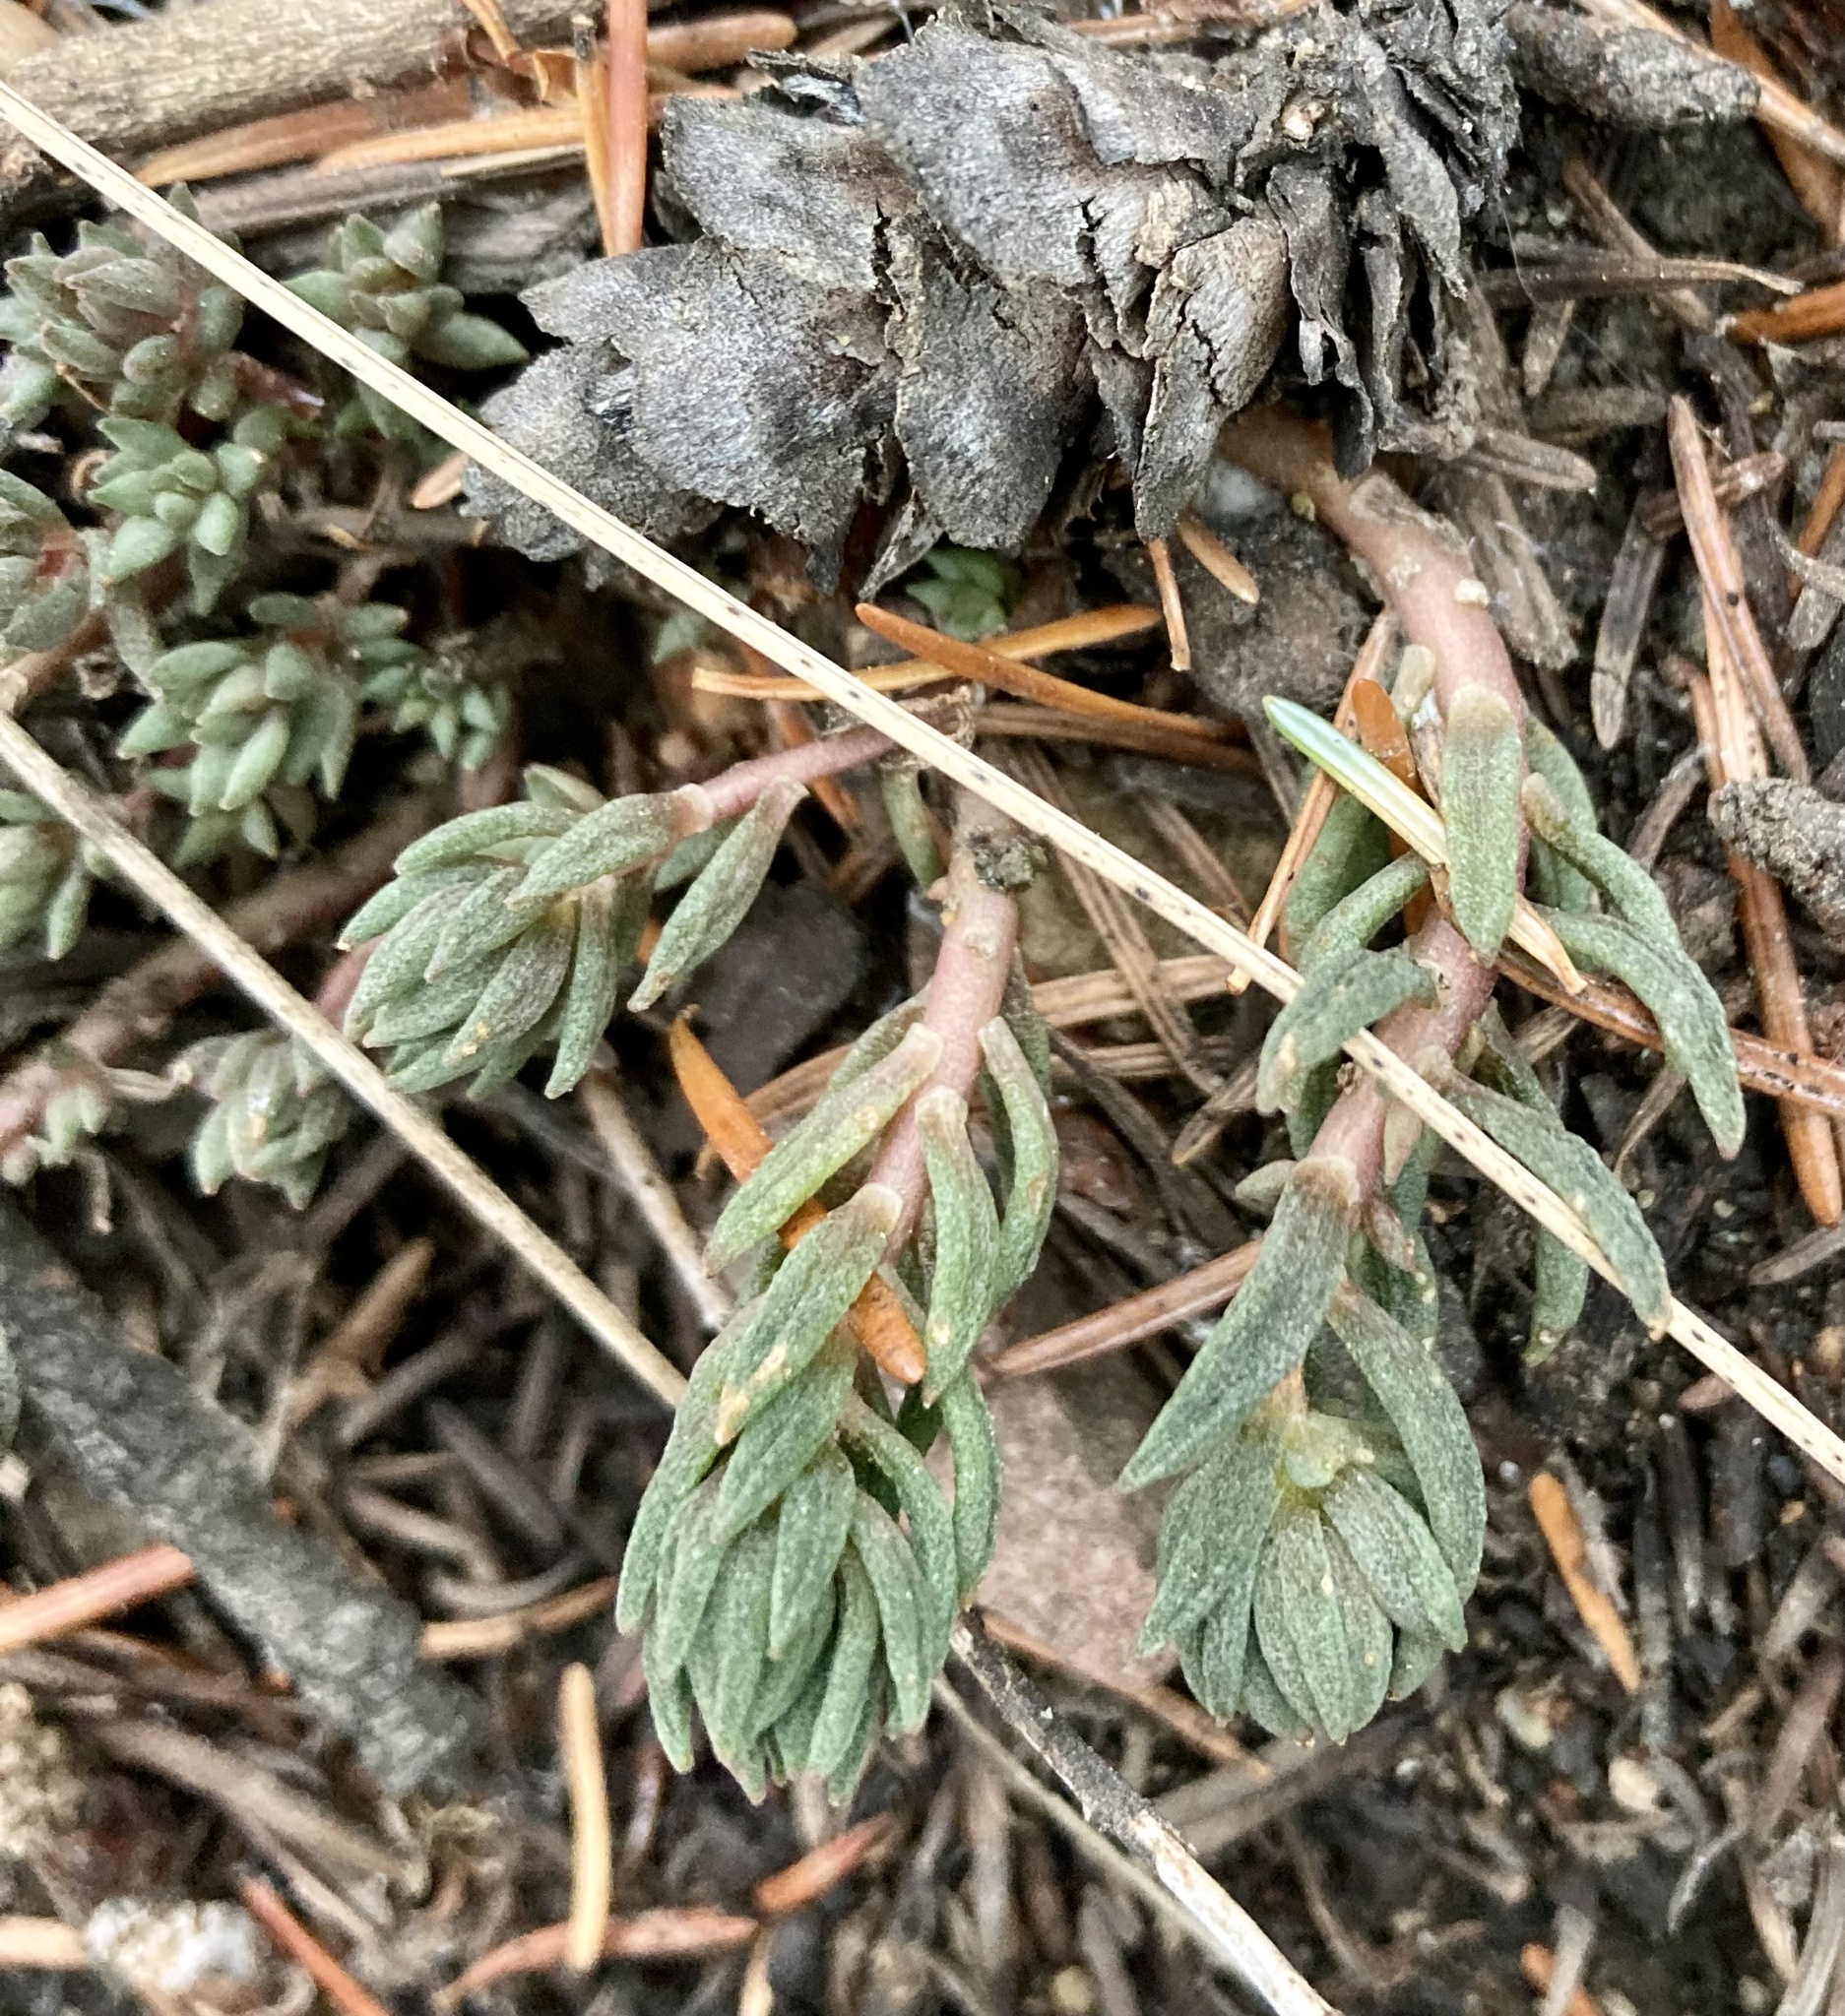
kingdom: Plantae
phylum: Tracheophyta
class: Magnoliopsida
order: Saxifragales
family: Crassulaceae
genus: Sedum
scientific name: Sedum lanceolatum
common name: Common stonecrop
